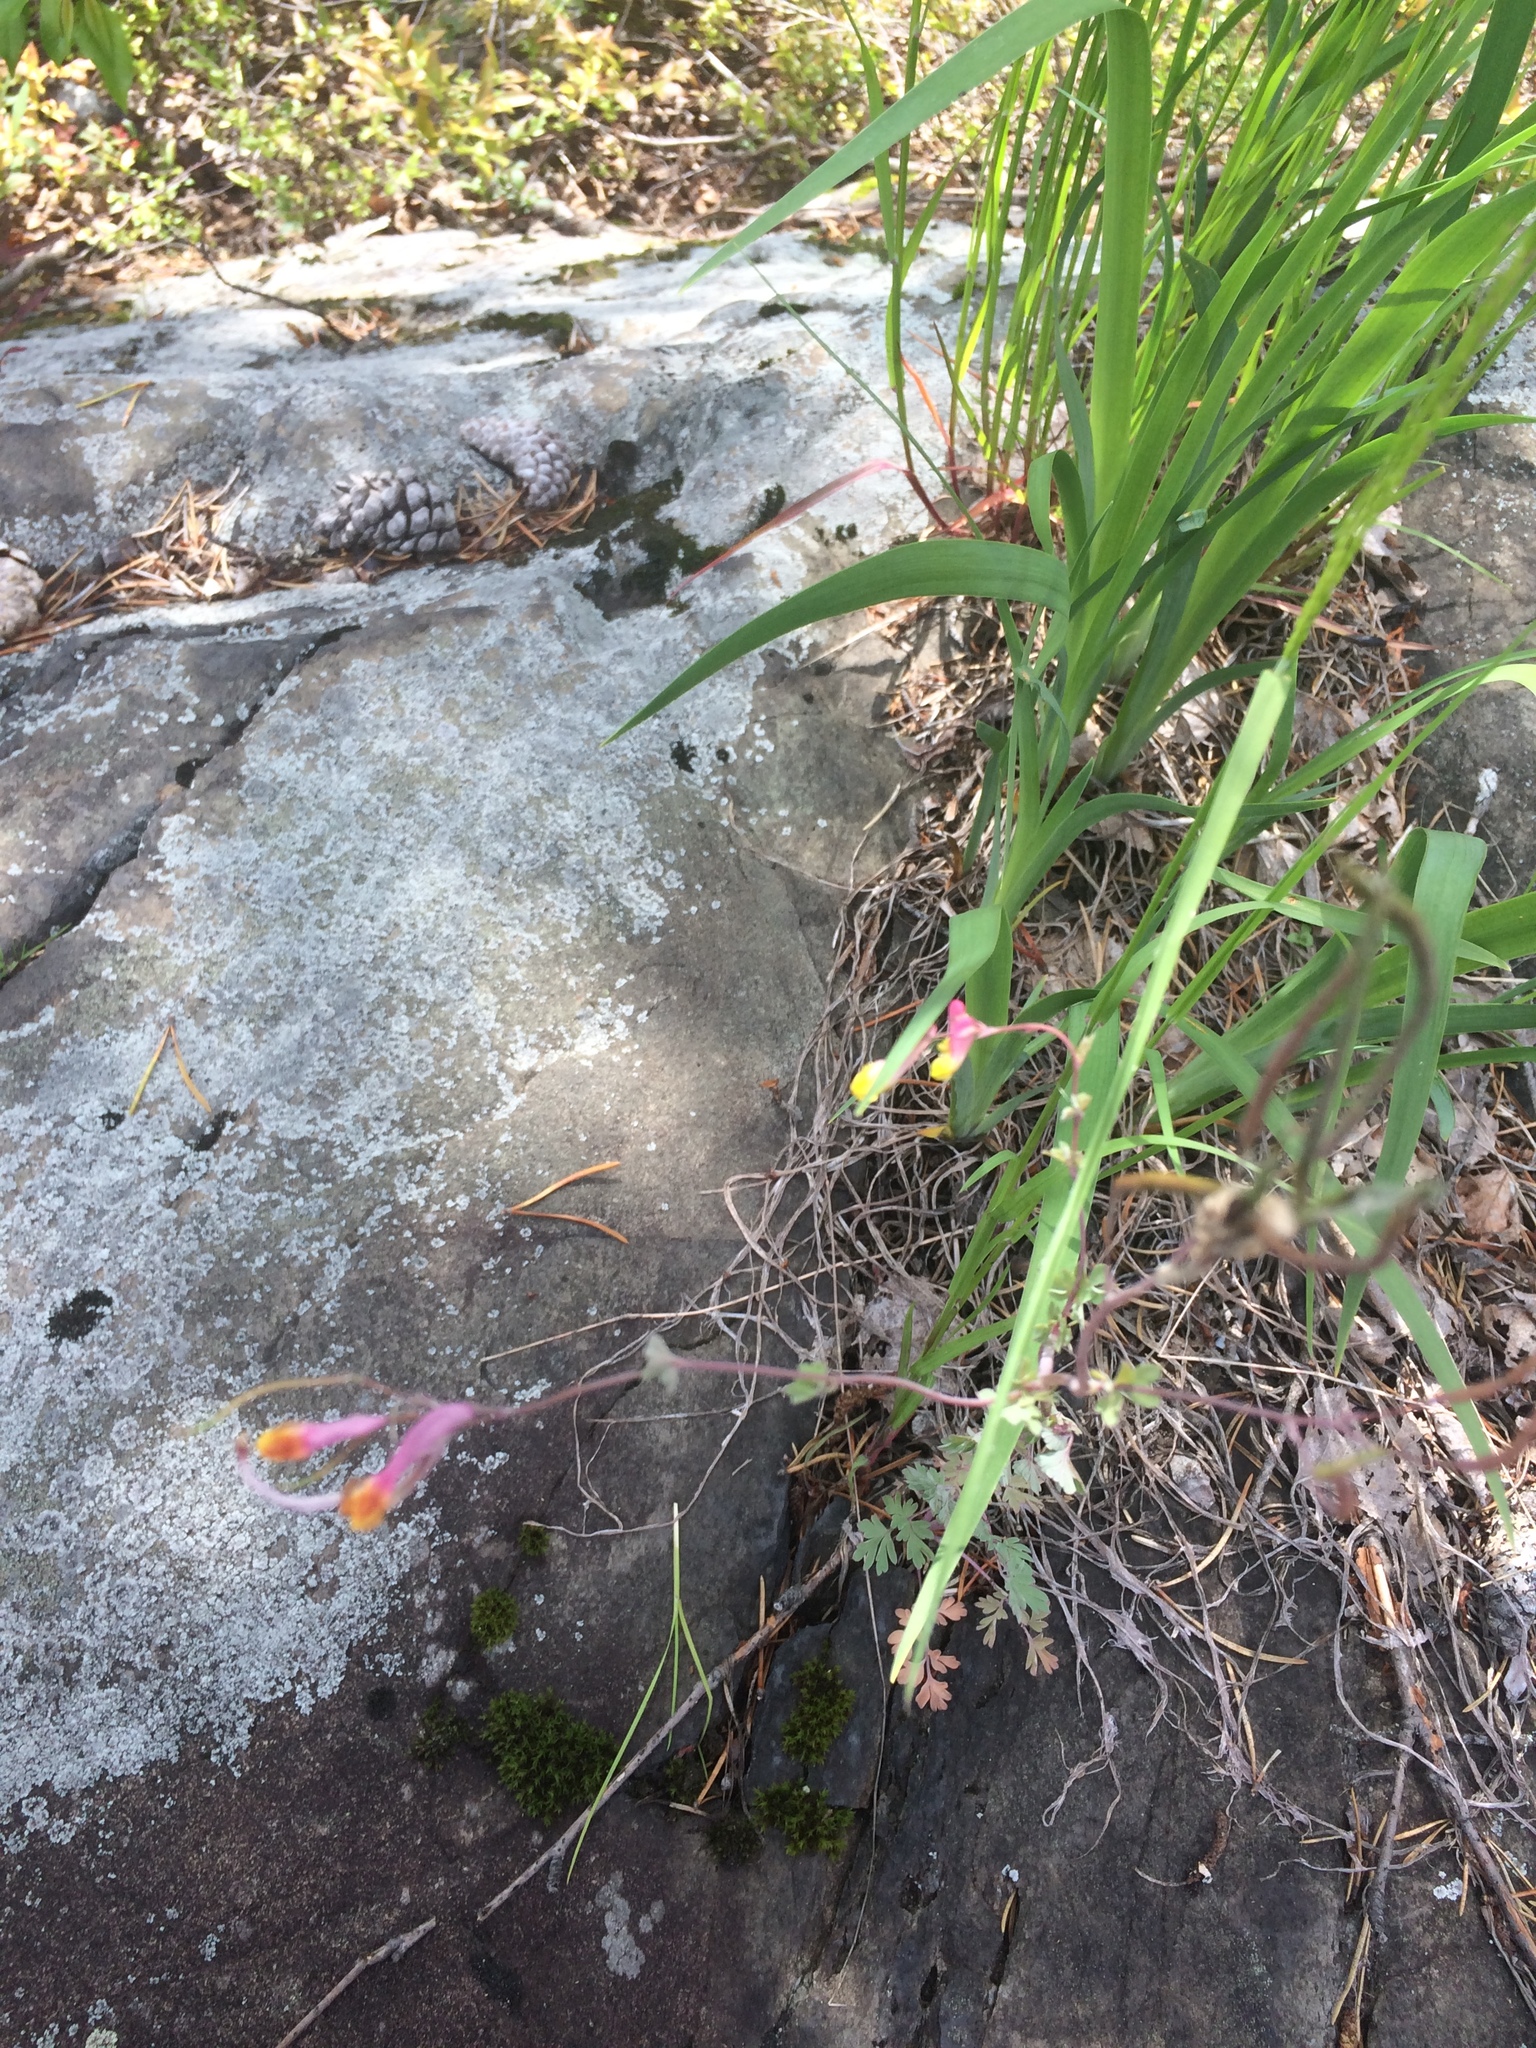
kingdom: Plantae
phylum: Tracheophyta
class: Magnoliopsida
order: Ranunculales
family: Papaveraceae
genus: Capnoides
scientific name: Capnoides sempervirens
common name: Rock harlequin
